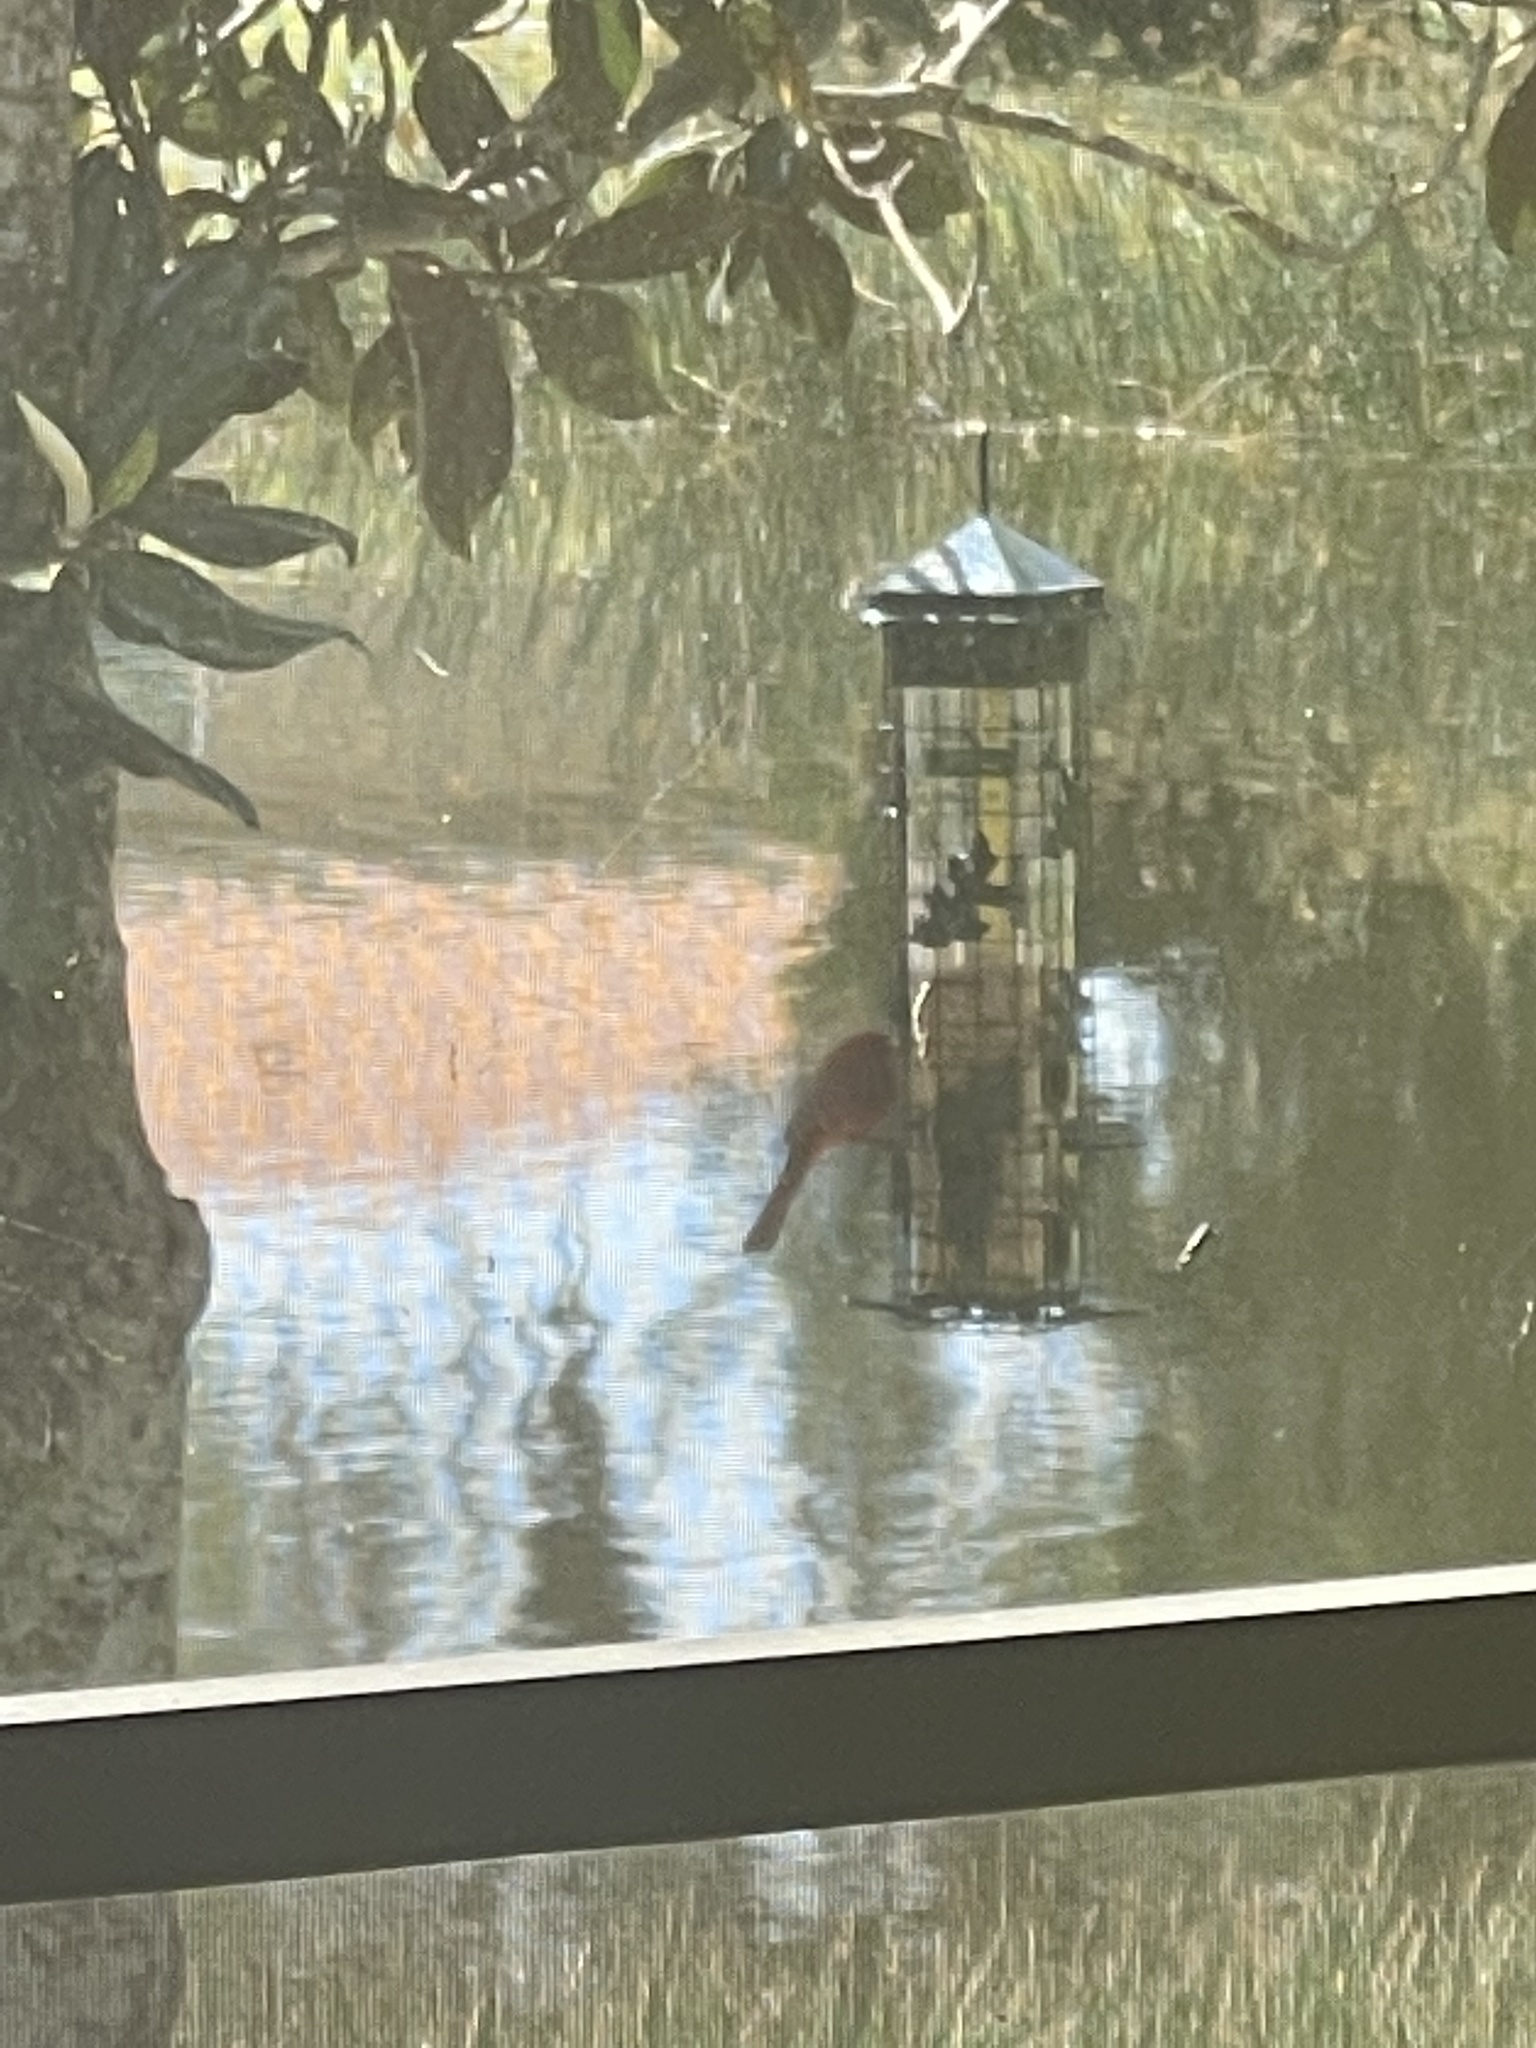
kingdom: Animalia
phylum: Chordata
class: Aves
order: Passeriformes
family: Cardinalidae
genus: Cardinalis
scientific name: Cardinalis cardinalis
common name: Northern cardinal
